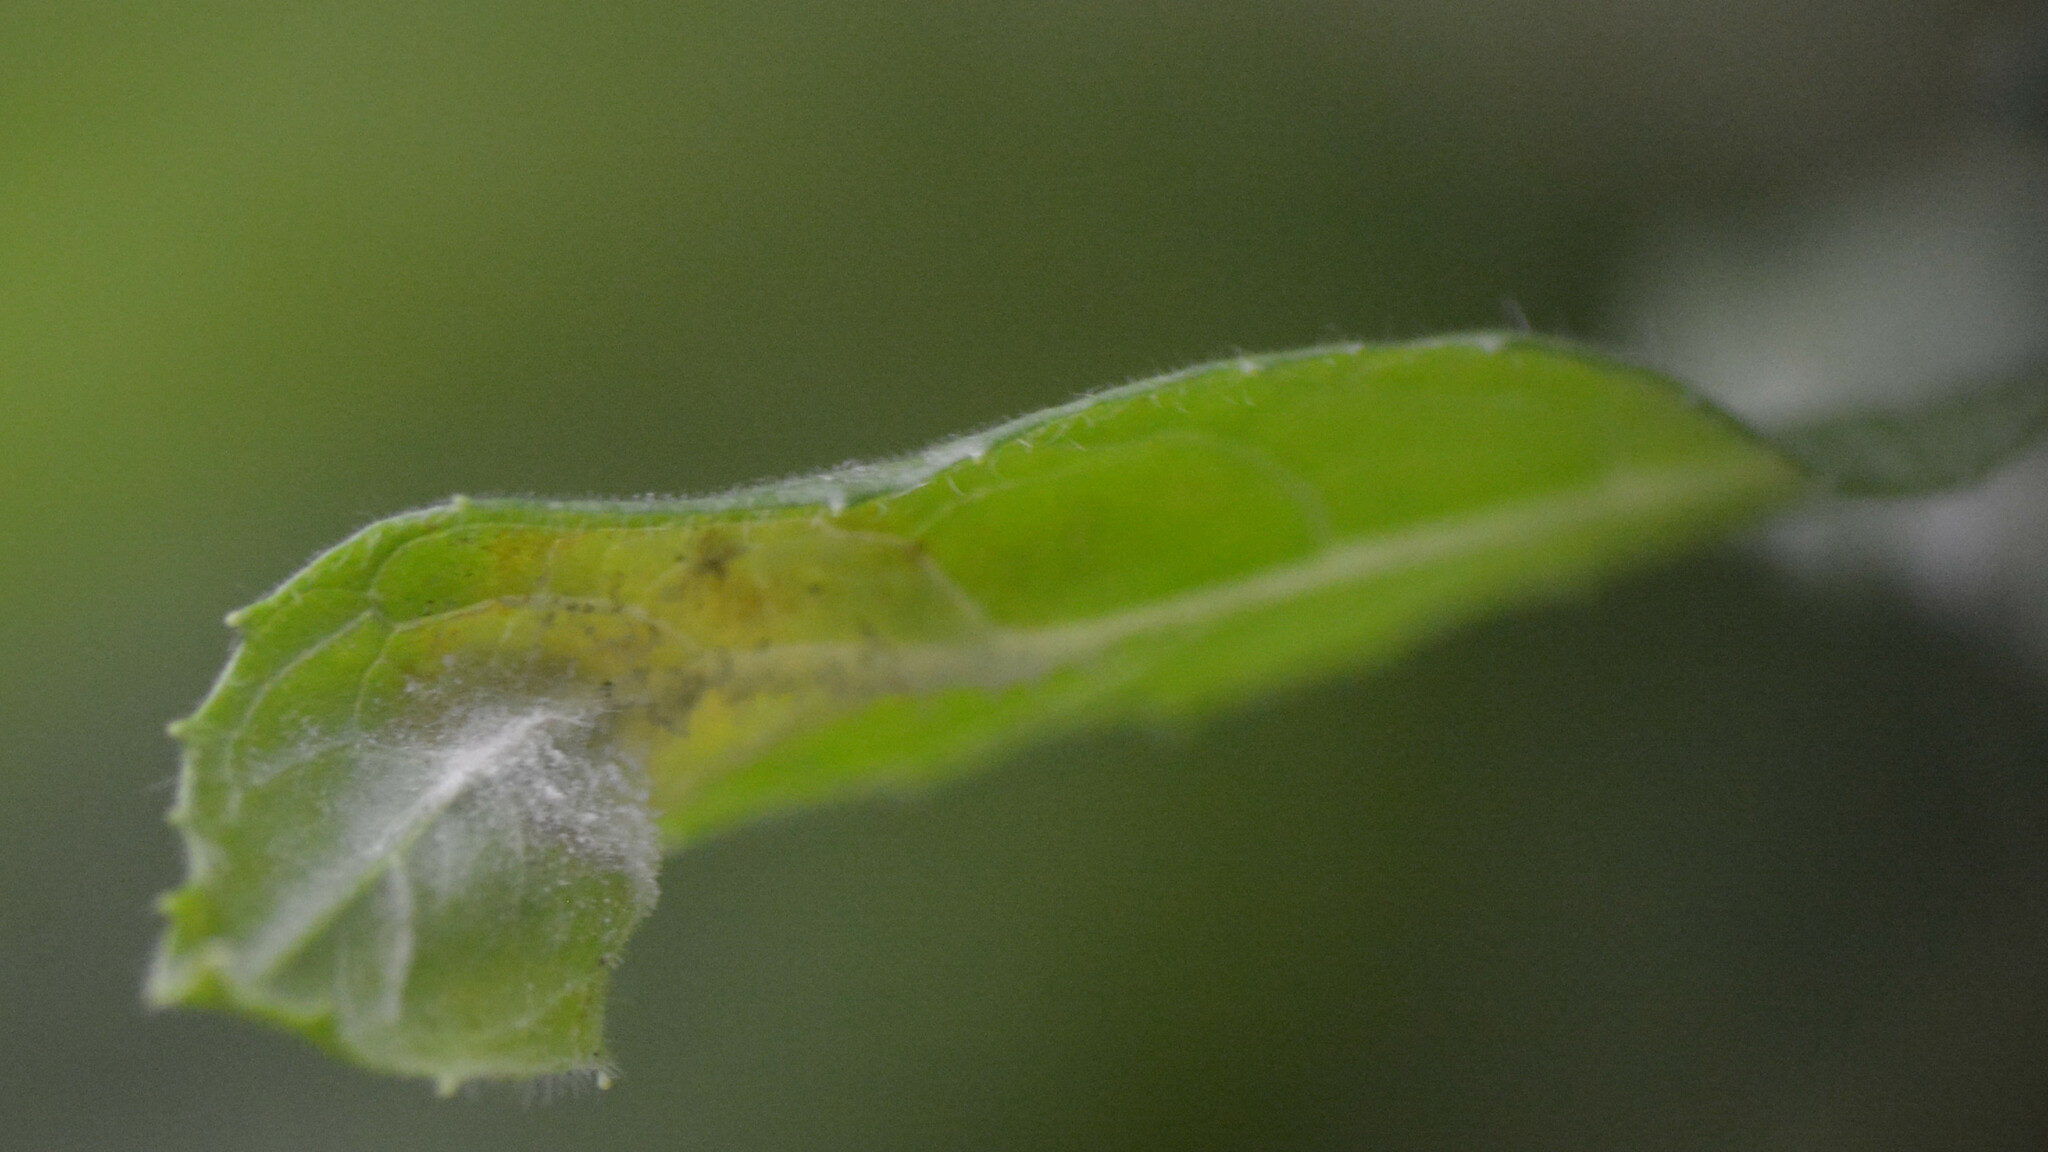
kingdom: Fungi
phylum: Ascomycota
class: Leotiomycetes
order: Helotiales
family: Erysiphaceae
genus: Podosphaera
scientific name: Podosphaera epilobii
